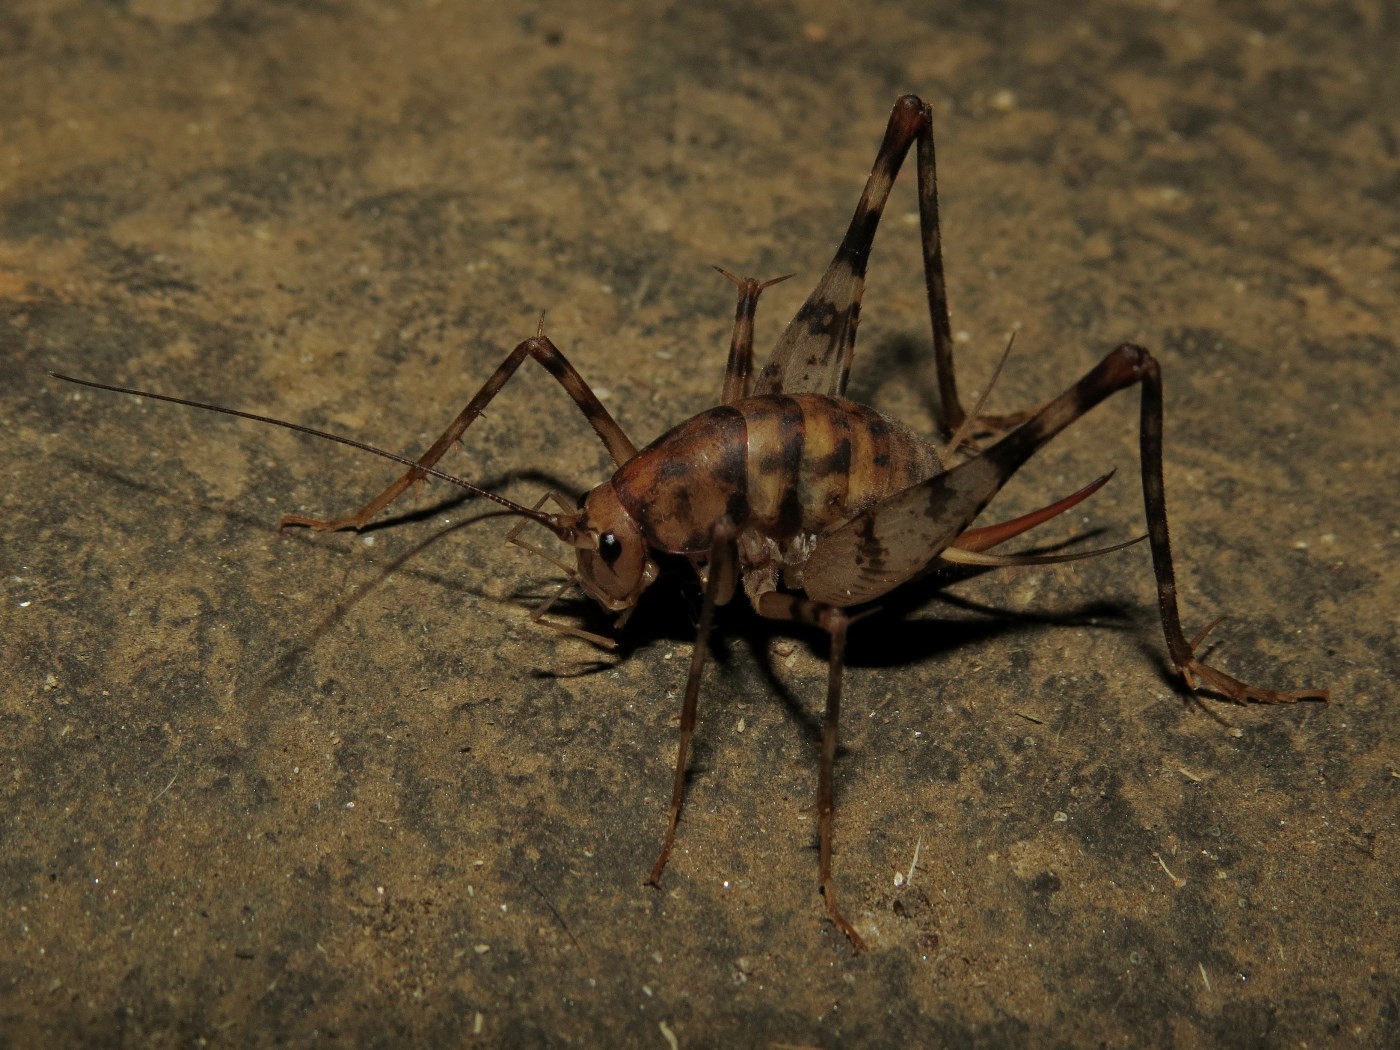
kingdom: Animalia
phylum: Arthropoda
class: Insecta
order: Orthoptera
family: Rhaphidophoridae
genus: Tachycines
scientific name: Tachycines asynamorus
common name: Greenhouse camel cricket
